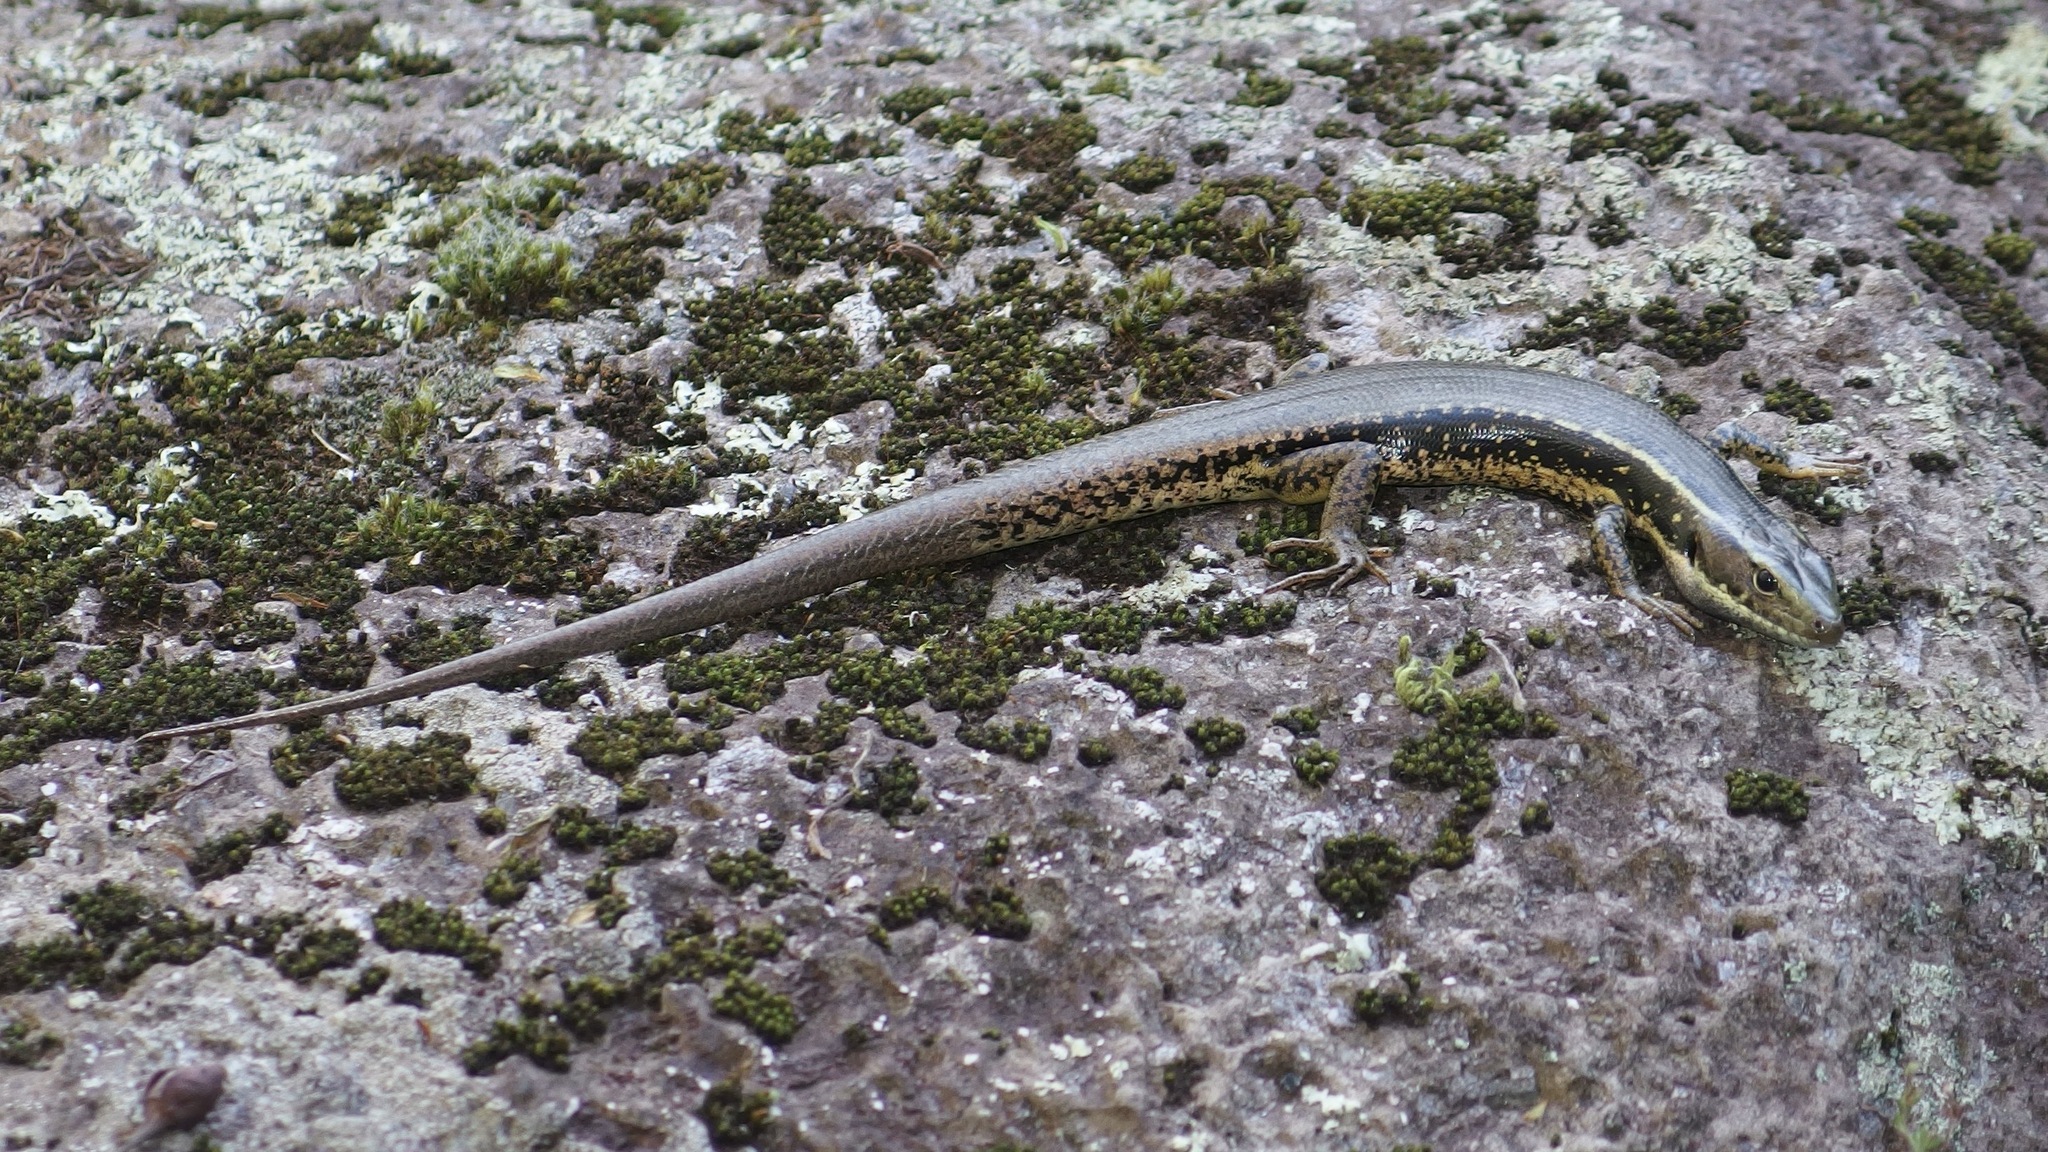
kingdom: Animalia
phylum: Chordata
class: Squamata
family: Scincidae
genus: Eulamprus
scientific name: Eulamprus quoyii
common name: Eastern water skink
